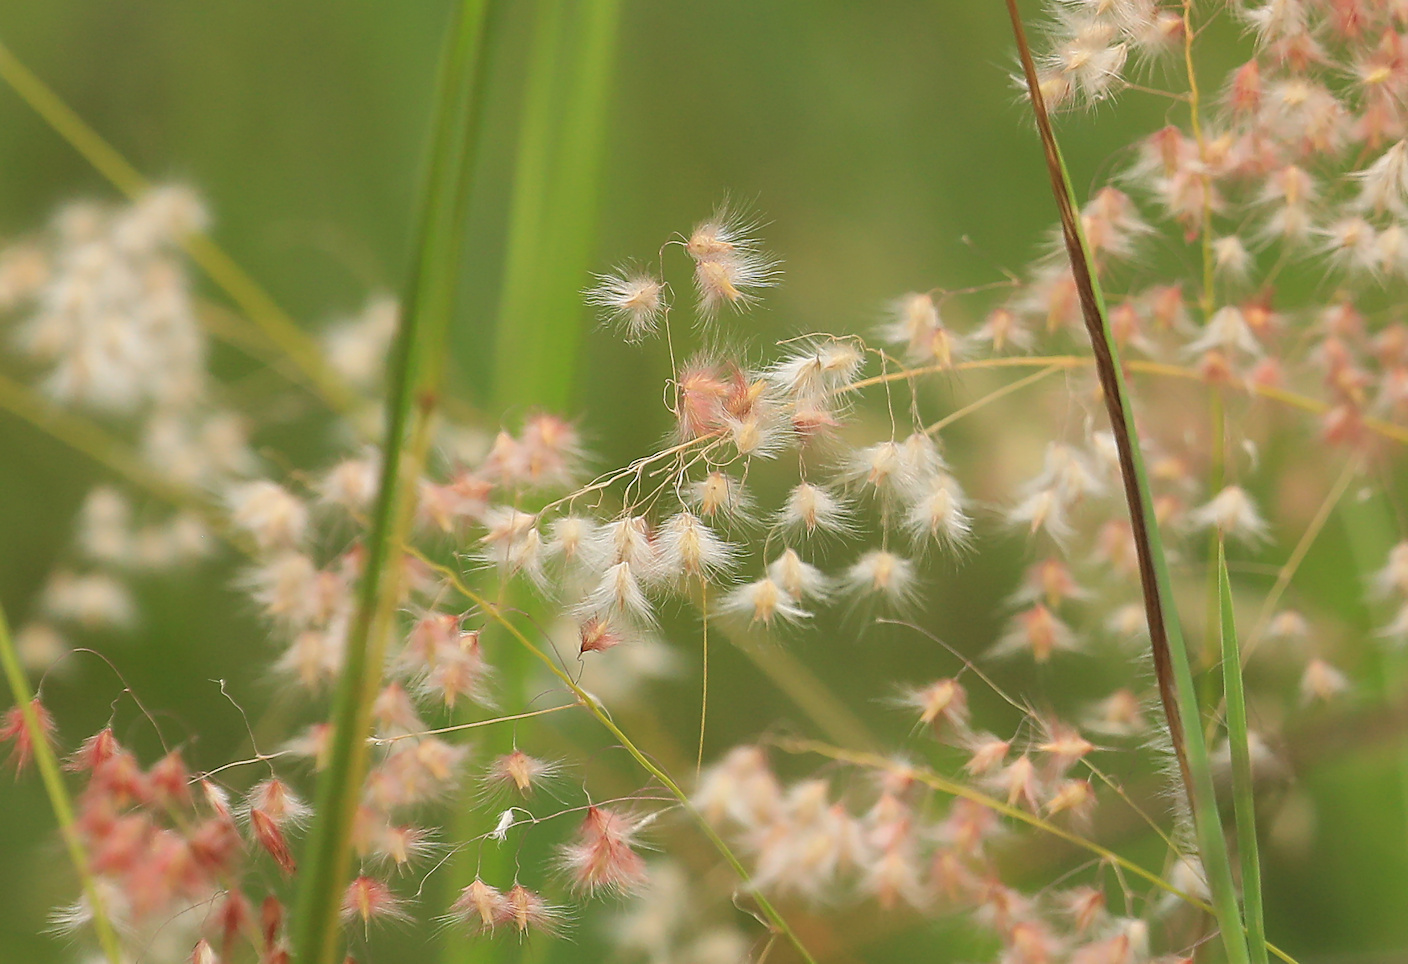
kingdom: Plantae
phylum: Tracheophyta
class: Liliopsida
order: Poales
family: Poaceae
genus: Melinis
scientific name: Melinis repens
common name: Rose natal grass
